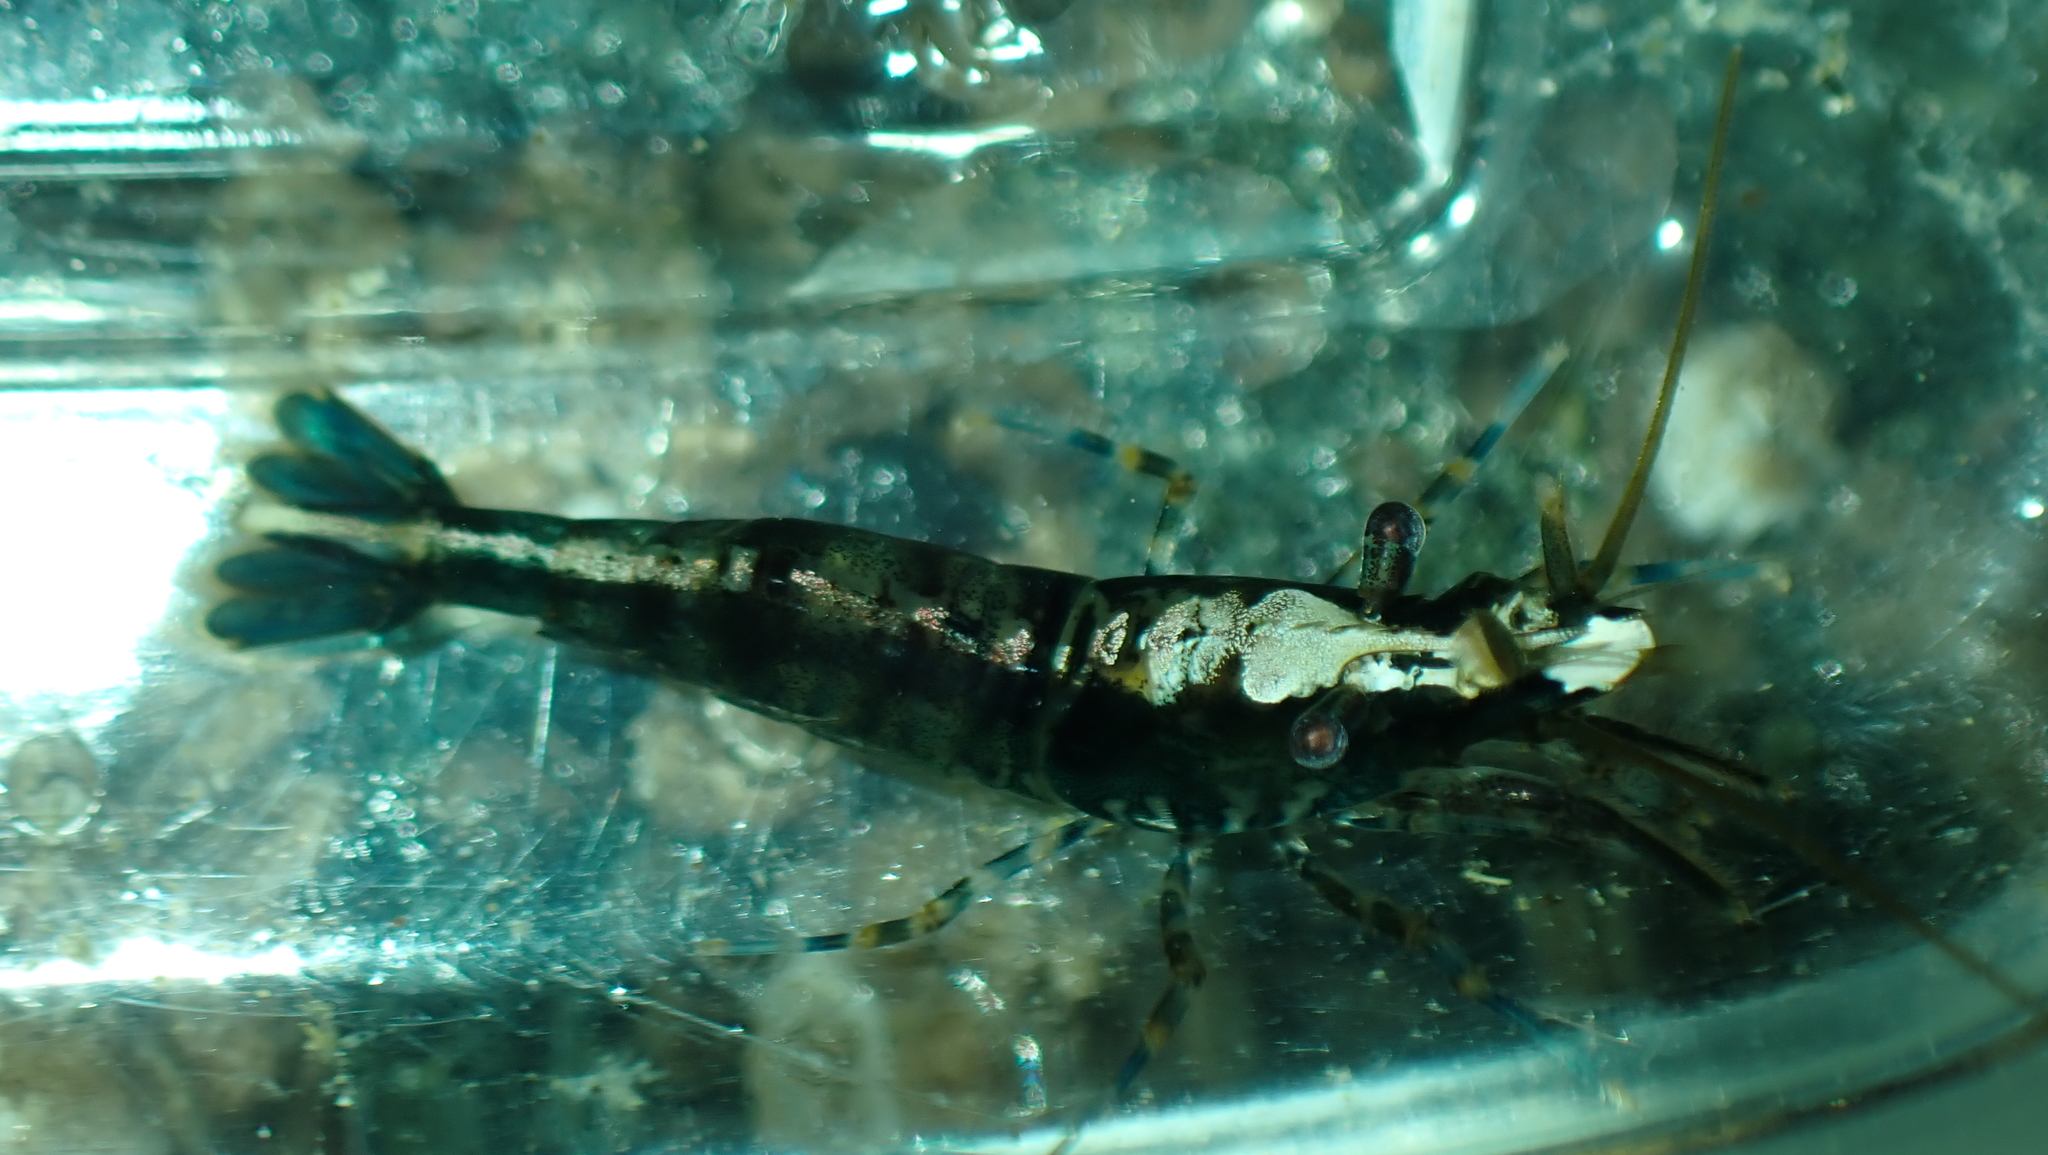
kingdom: Animalia
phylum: Arthropoda
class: Malacostraca
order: Decapoda
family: Thoridae
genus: Heptacarpus
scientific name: Heptacarpus sitchensis
